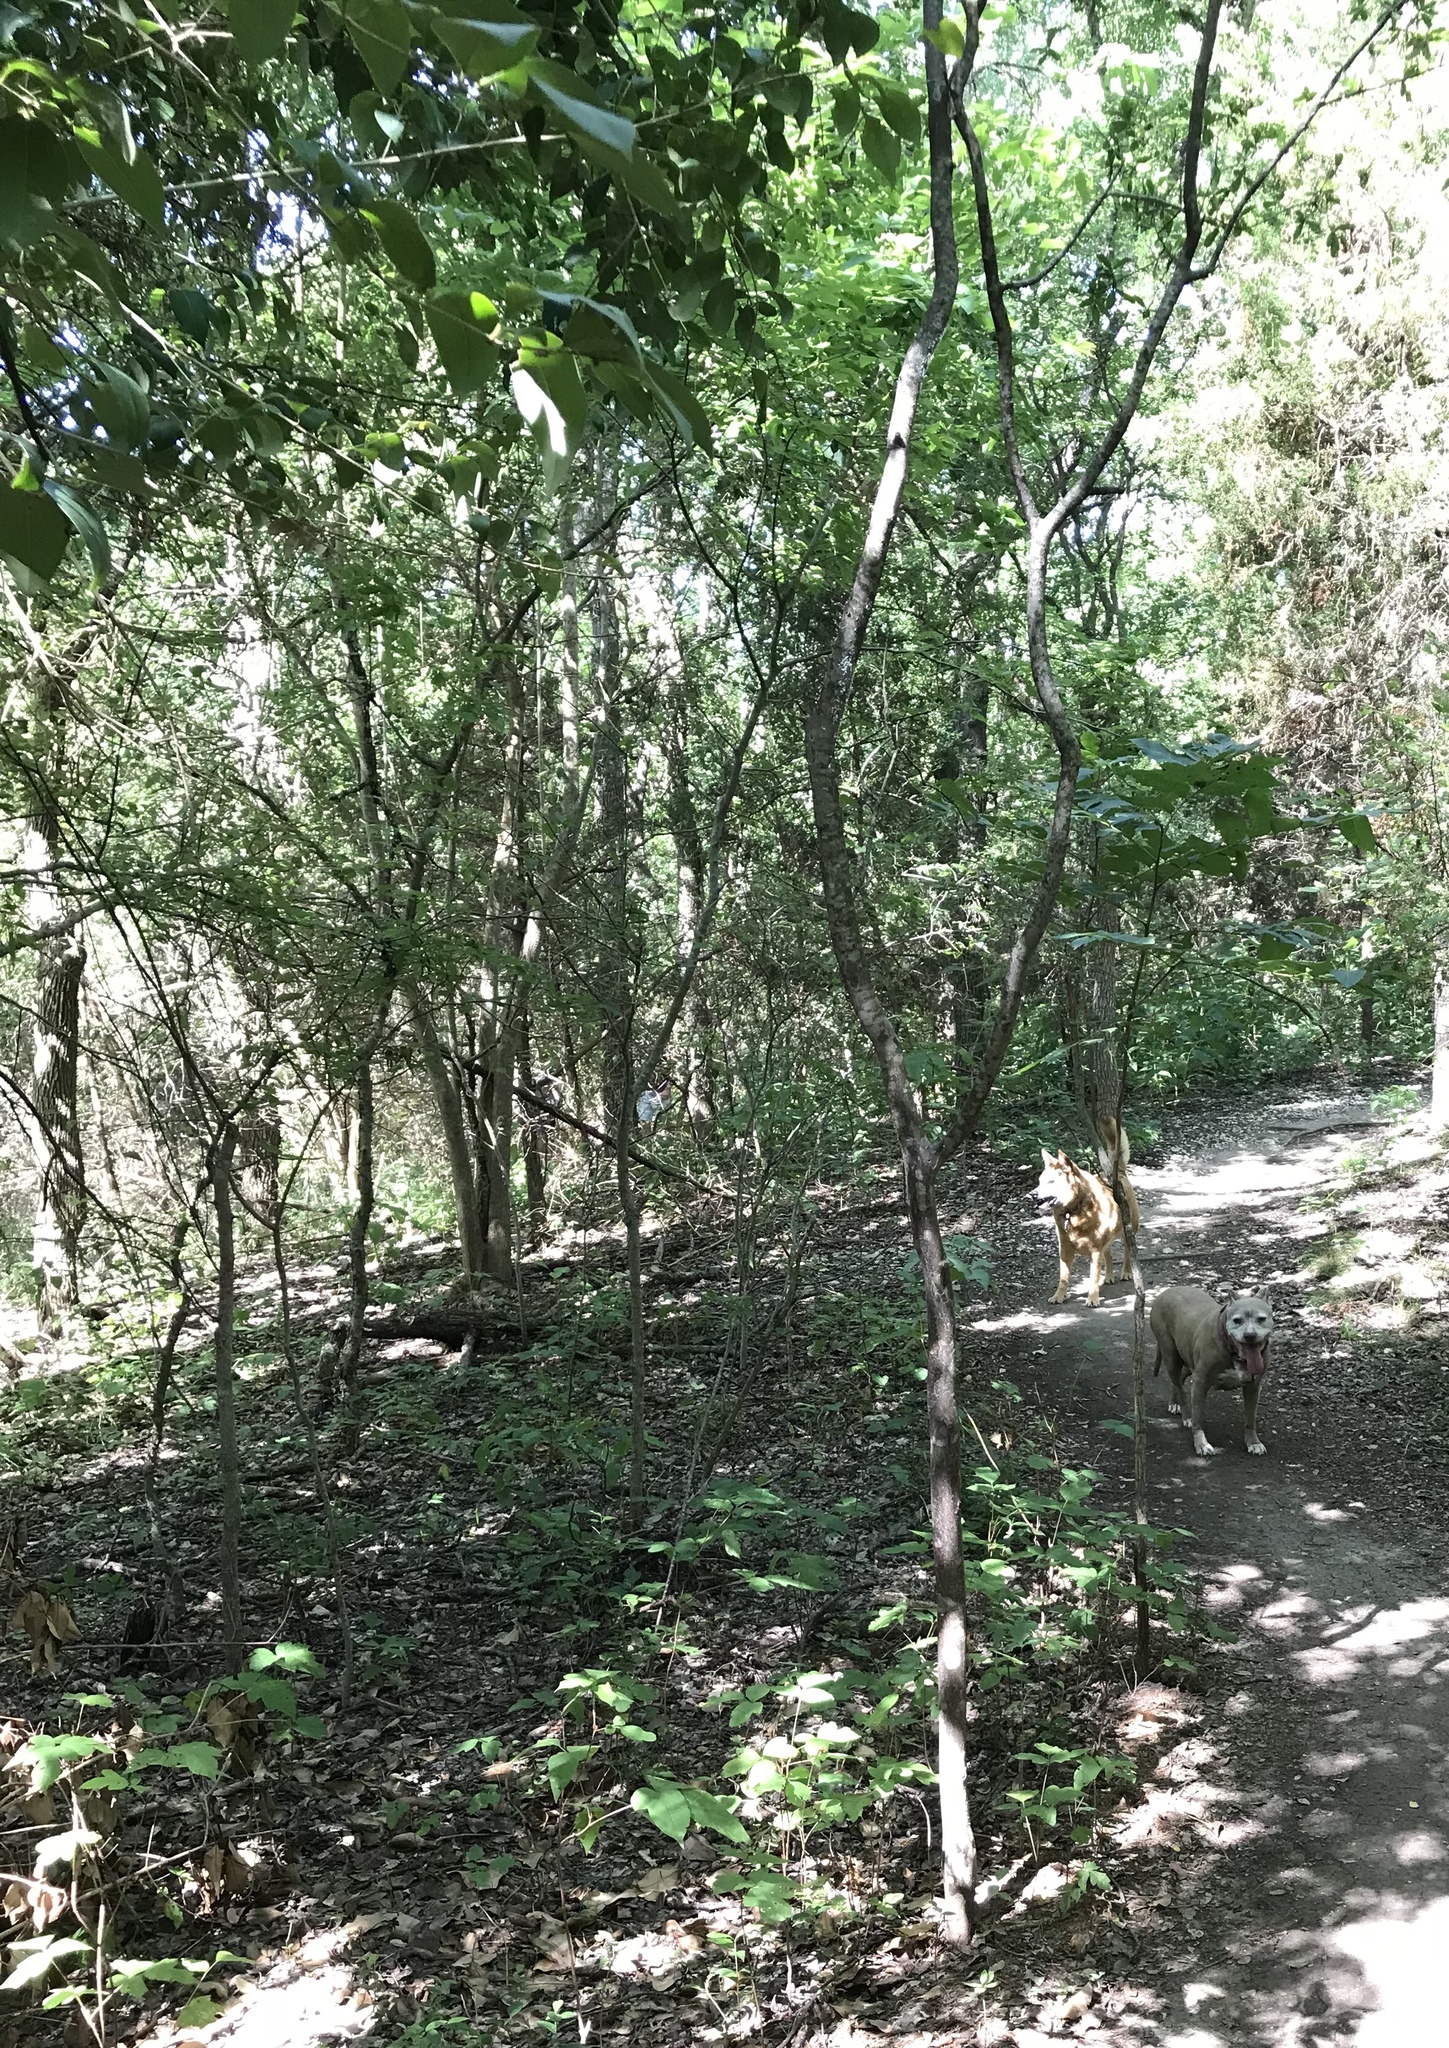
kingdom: Plantae
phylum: Tracheophyta
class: Magnoliopsida
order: Ericales
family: Ebenaceae
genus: Diospyros
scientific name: Diospyros texana
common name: Texas persimmon
